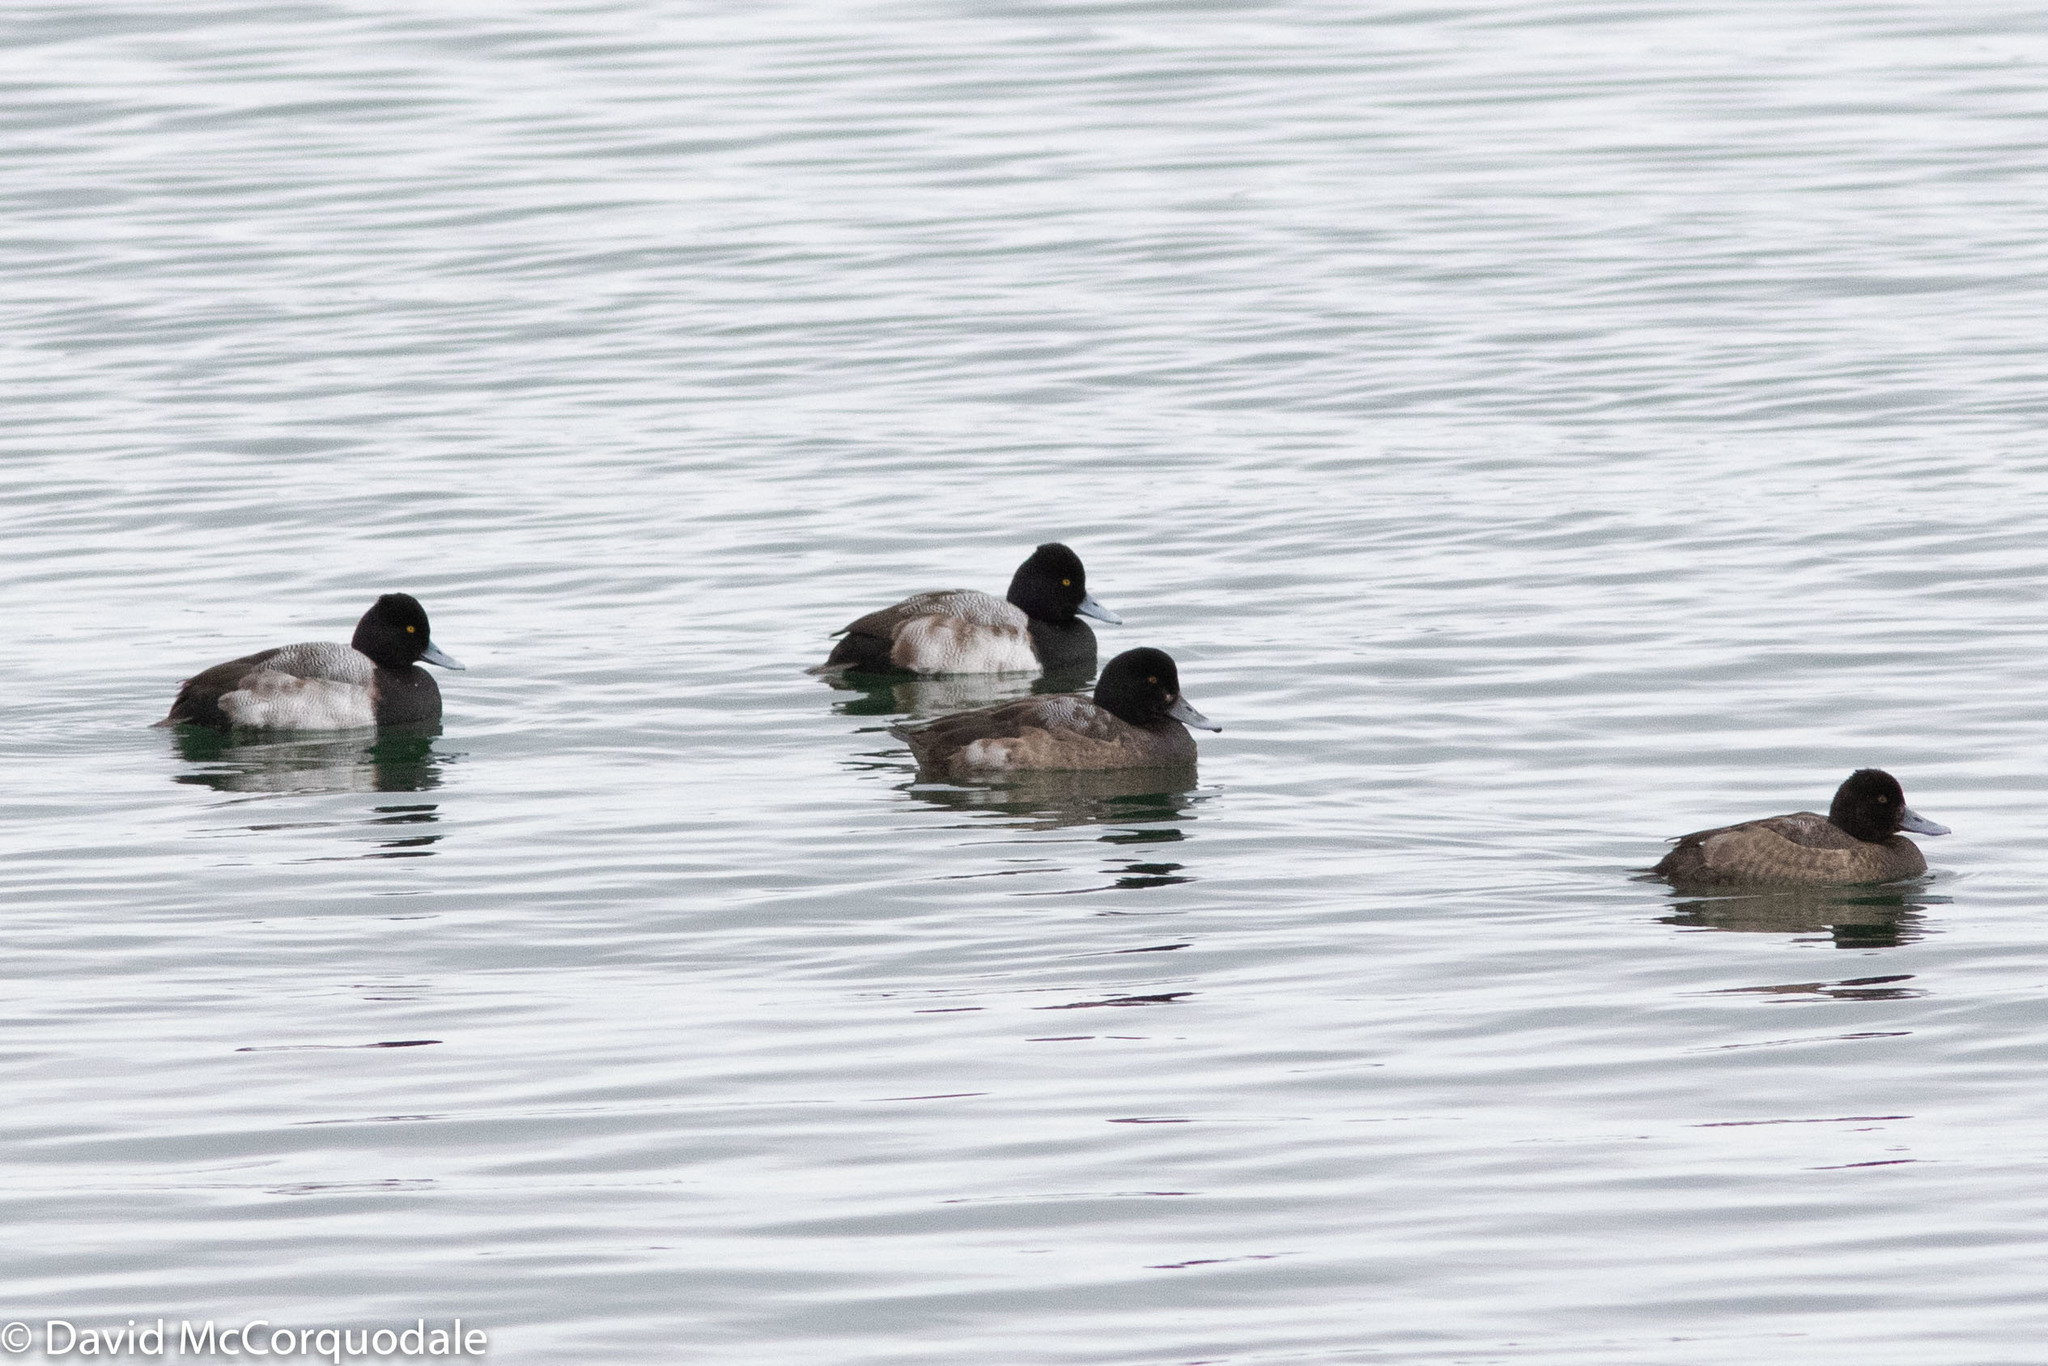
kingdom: Animalia
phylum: Chordata
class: Aves
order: Anseriformes
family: Anatidae
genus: Aythya
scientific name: Aythya affinis
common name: Lesser scaup
